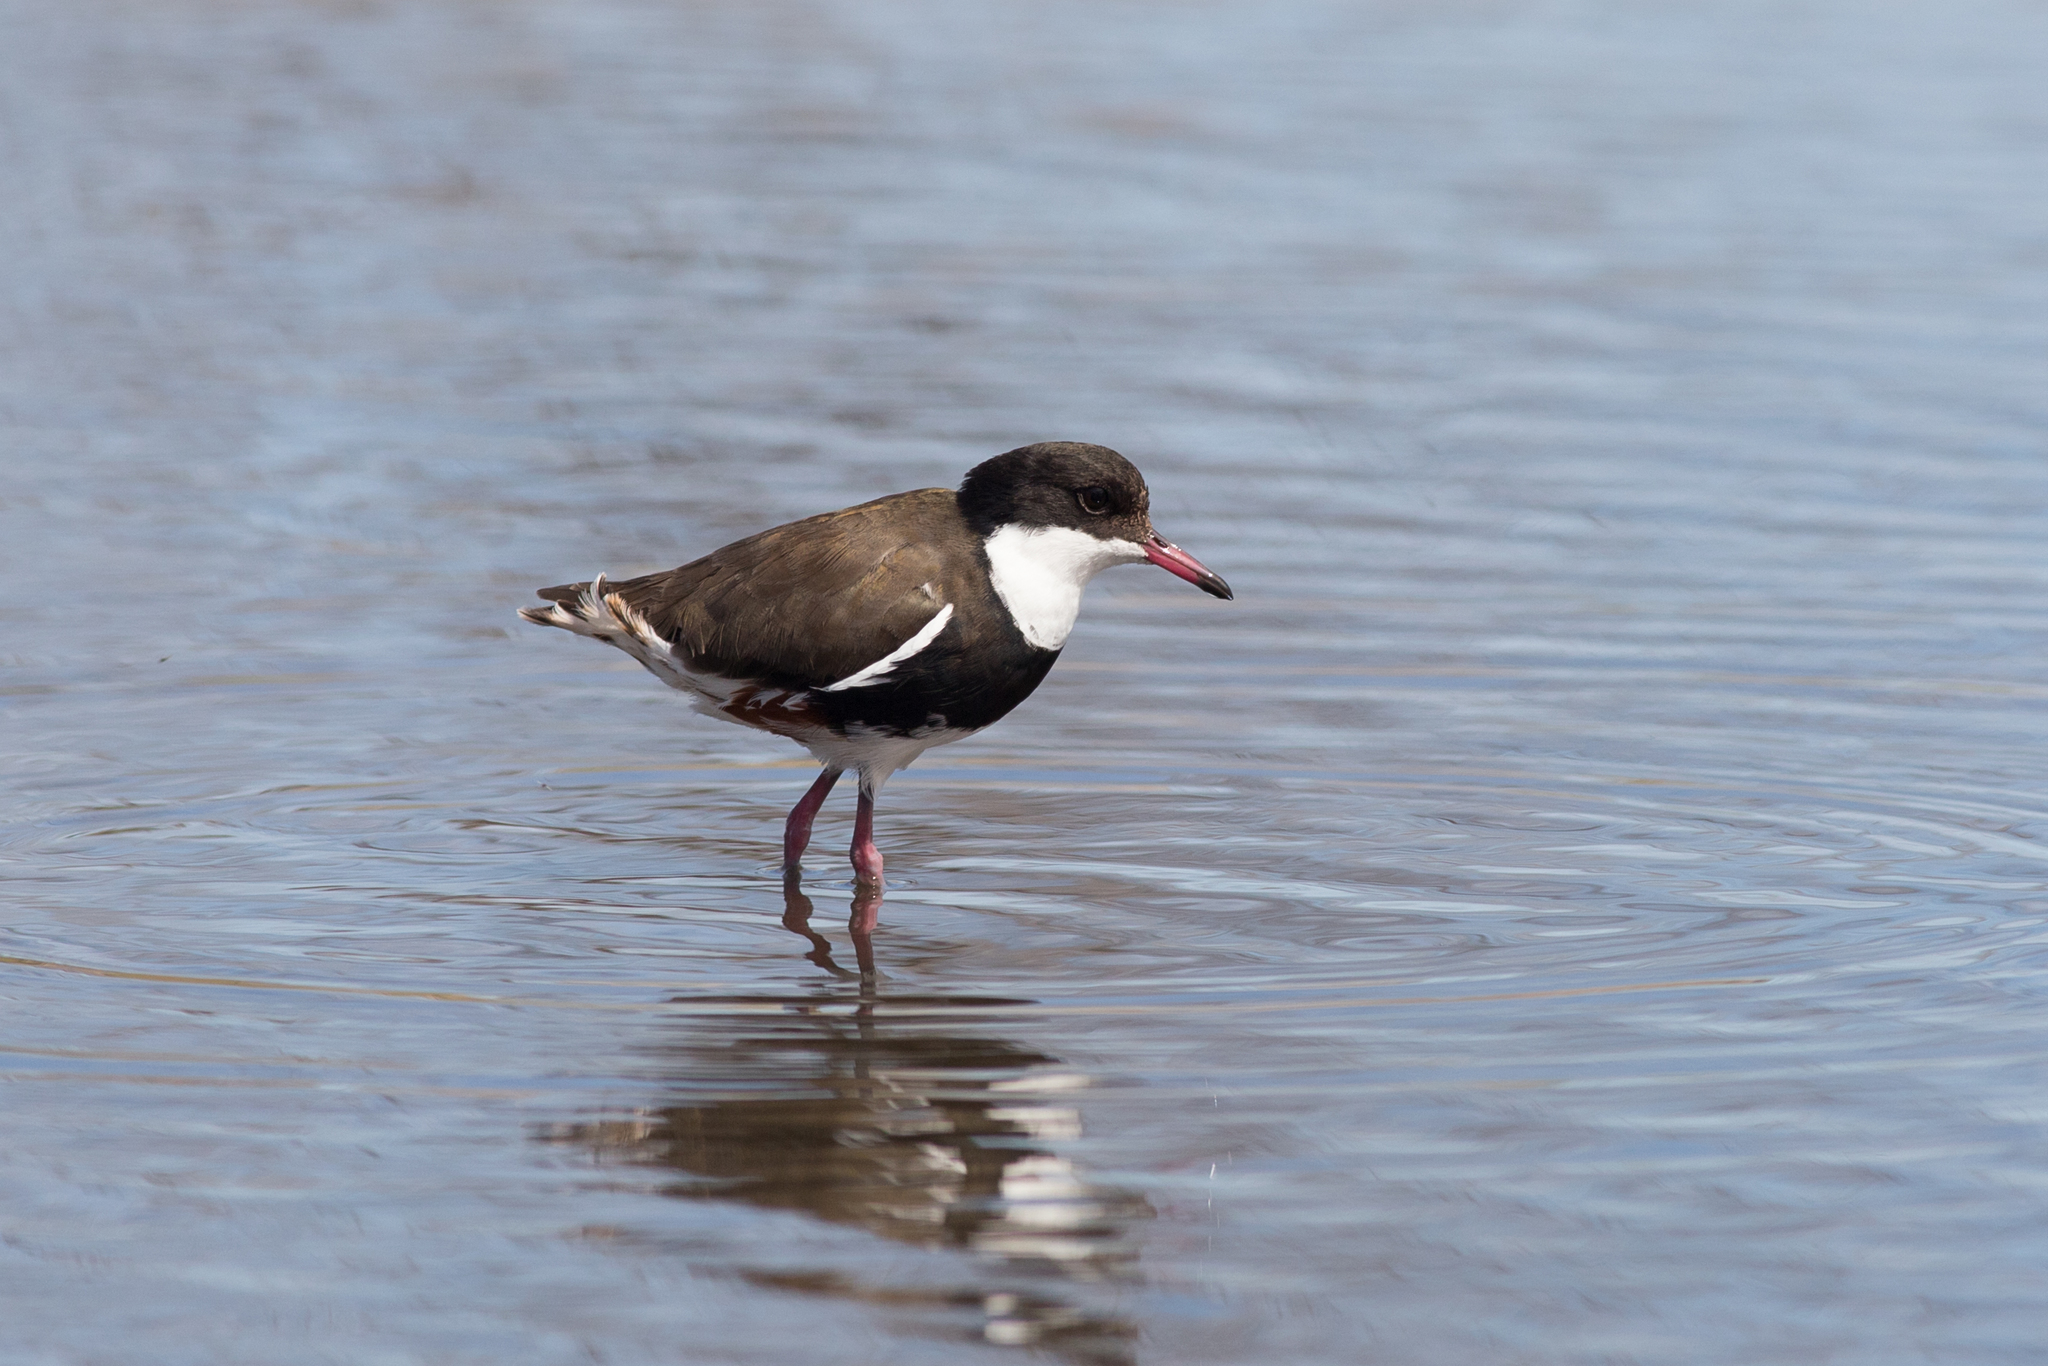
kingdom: Animalia
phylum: Chordata
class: Aves
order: Charadriiformes
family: Charadriidae
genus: Erythrogonys
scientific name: Erythrogonys cinctus
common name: Red-kneed dotterel
